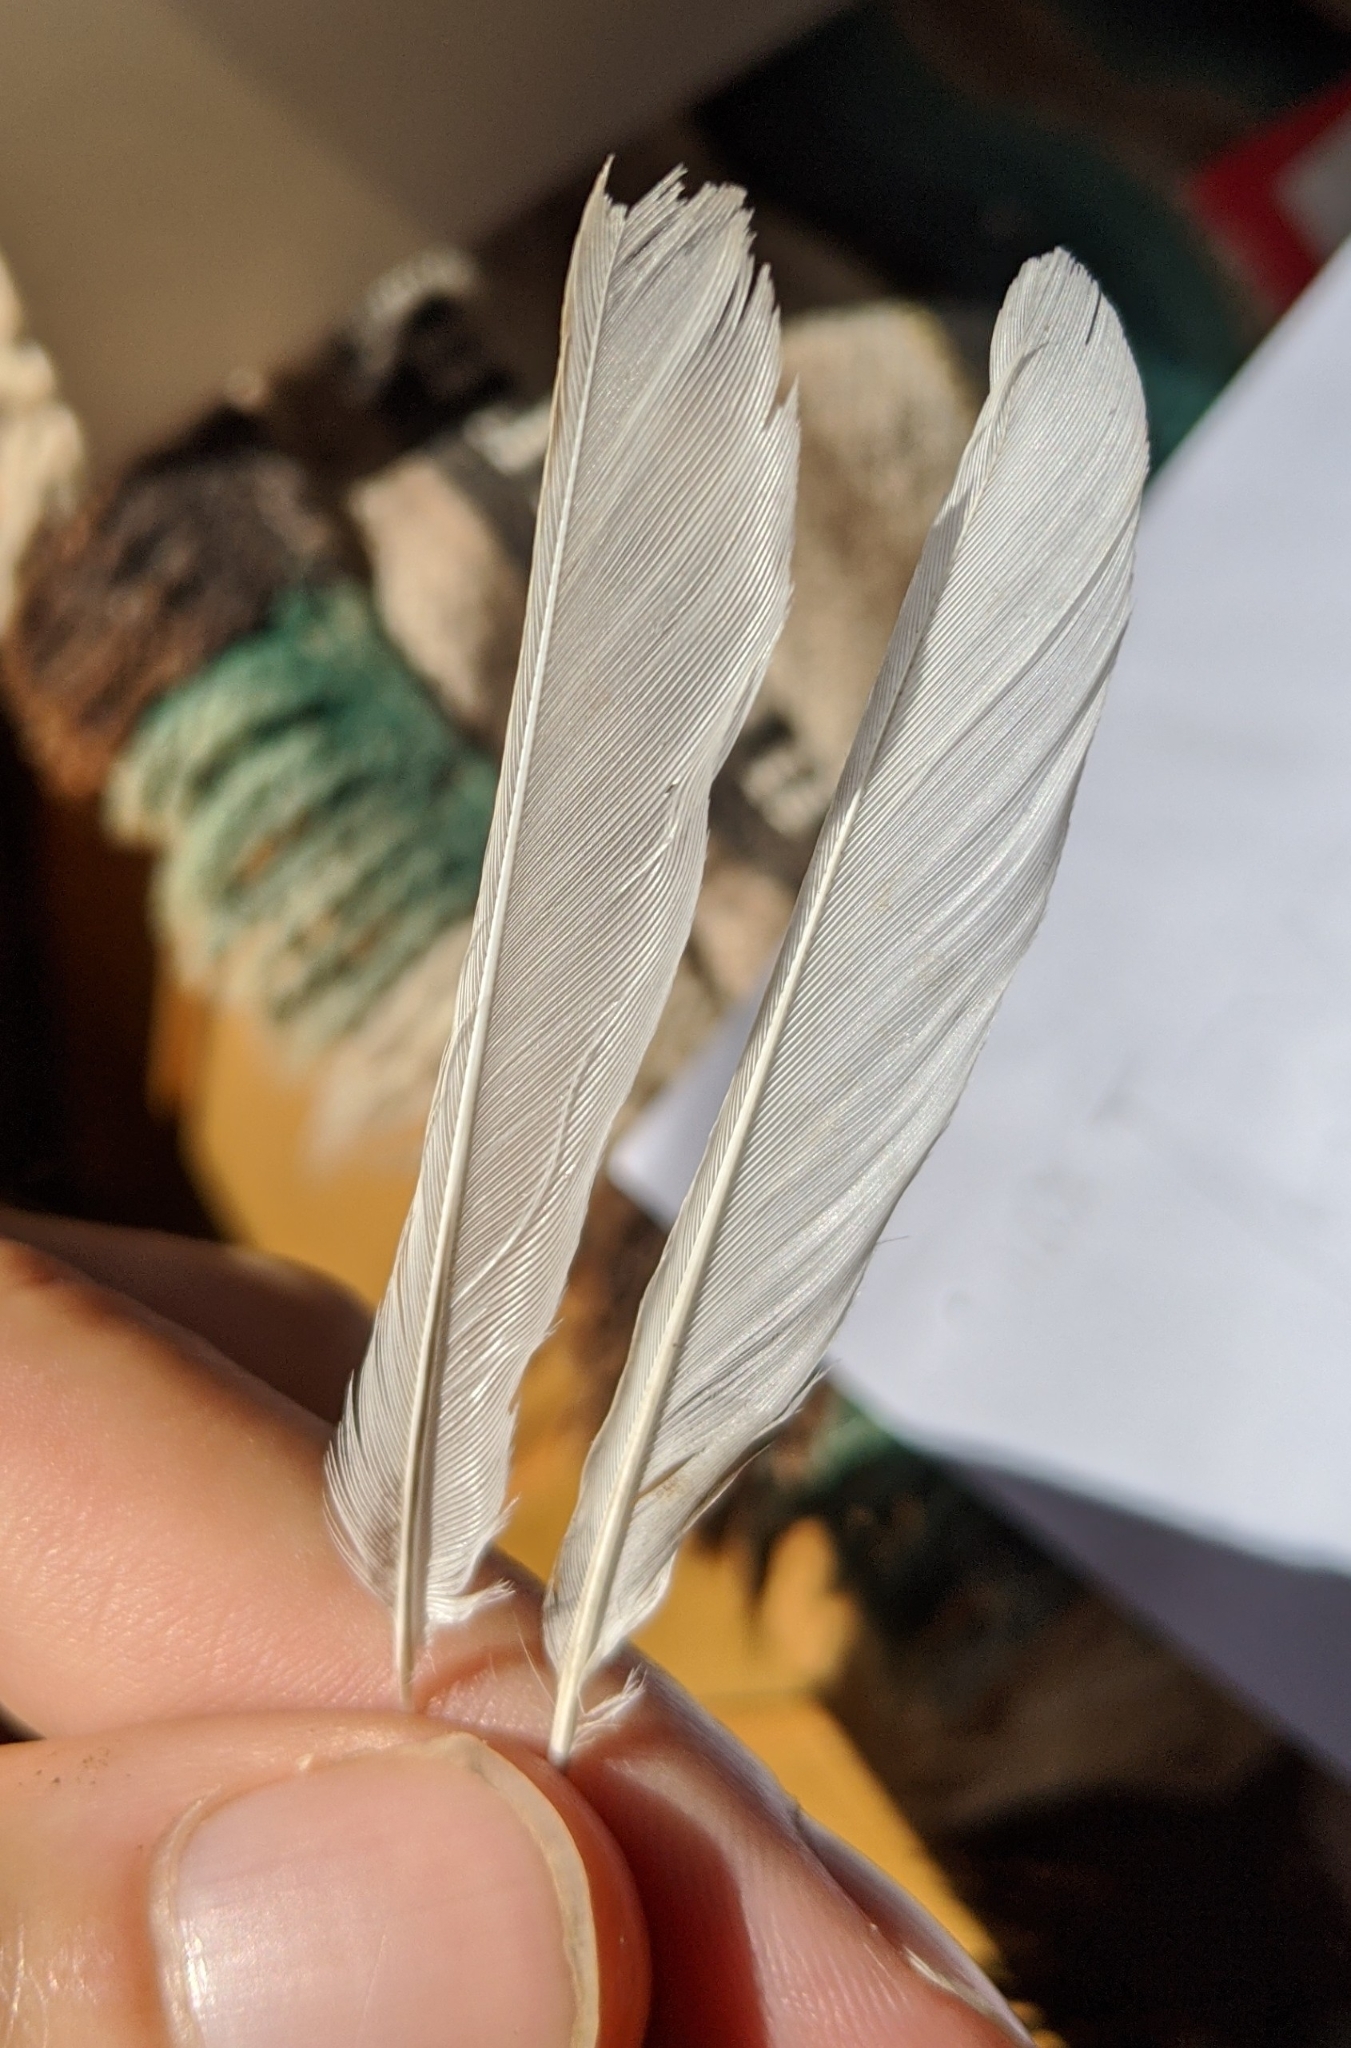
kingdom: Animalia
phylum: Chordata
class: Aves
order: Passeriformes
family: Passerellidae
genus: Junco
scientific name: Junco hyemalis
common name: Dark-eyed junco
